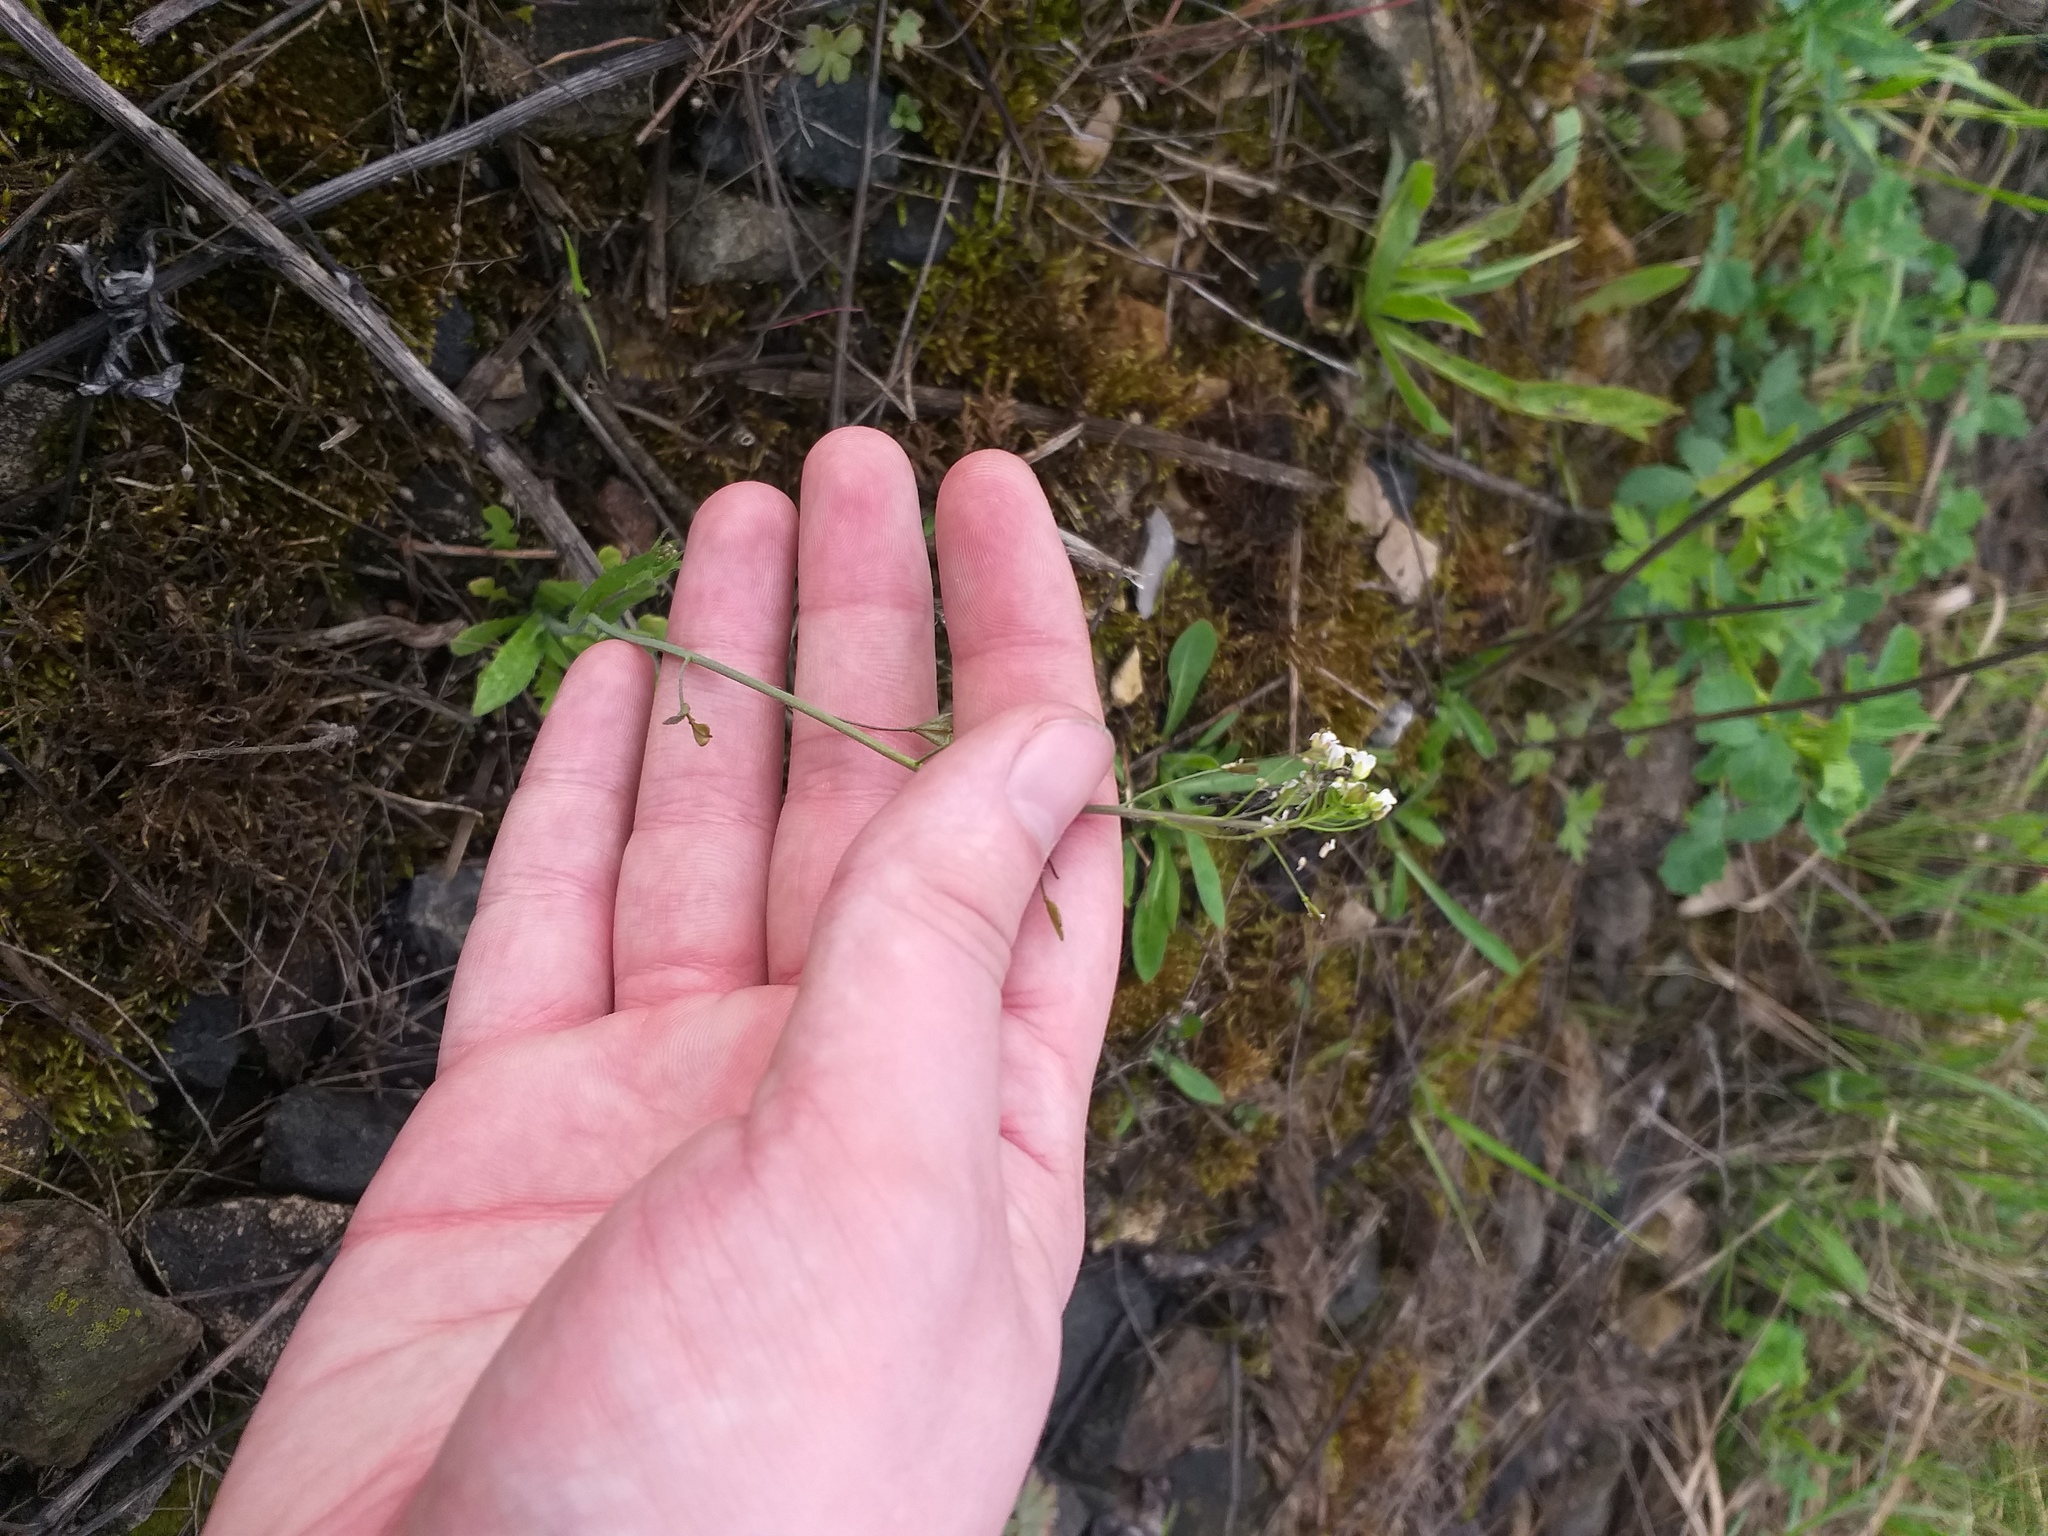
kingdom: Plantae
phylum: Tracheophyta
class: Magnoliopsida
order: Brassicales
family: Brassicaceae
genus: Capsella
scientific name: Capsella bursa-pastoris
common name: Shepherd's purse
